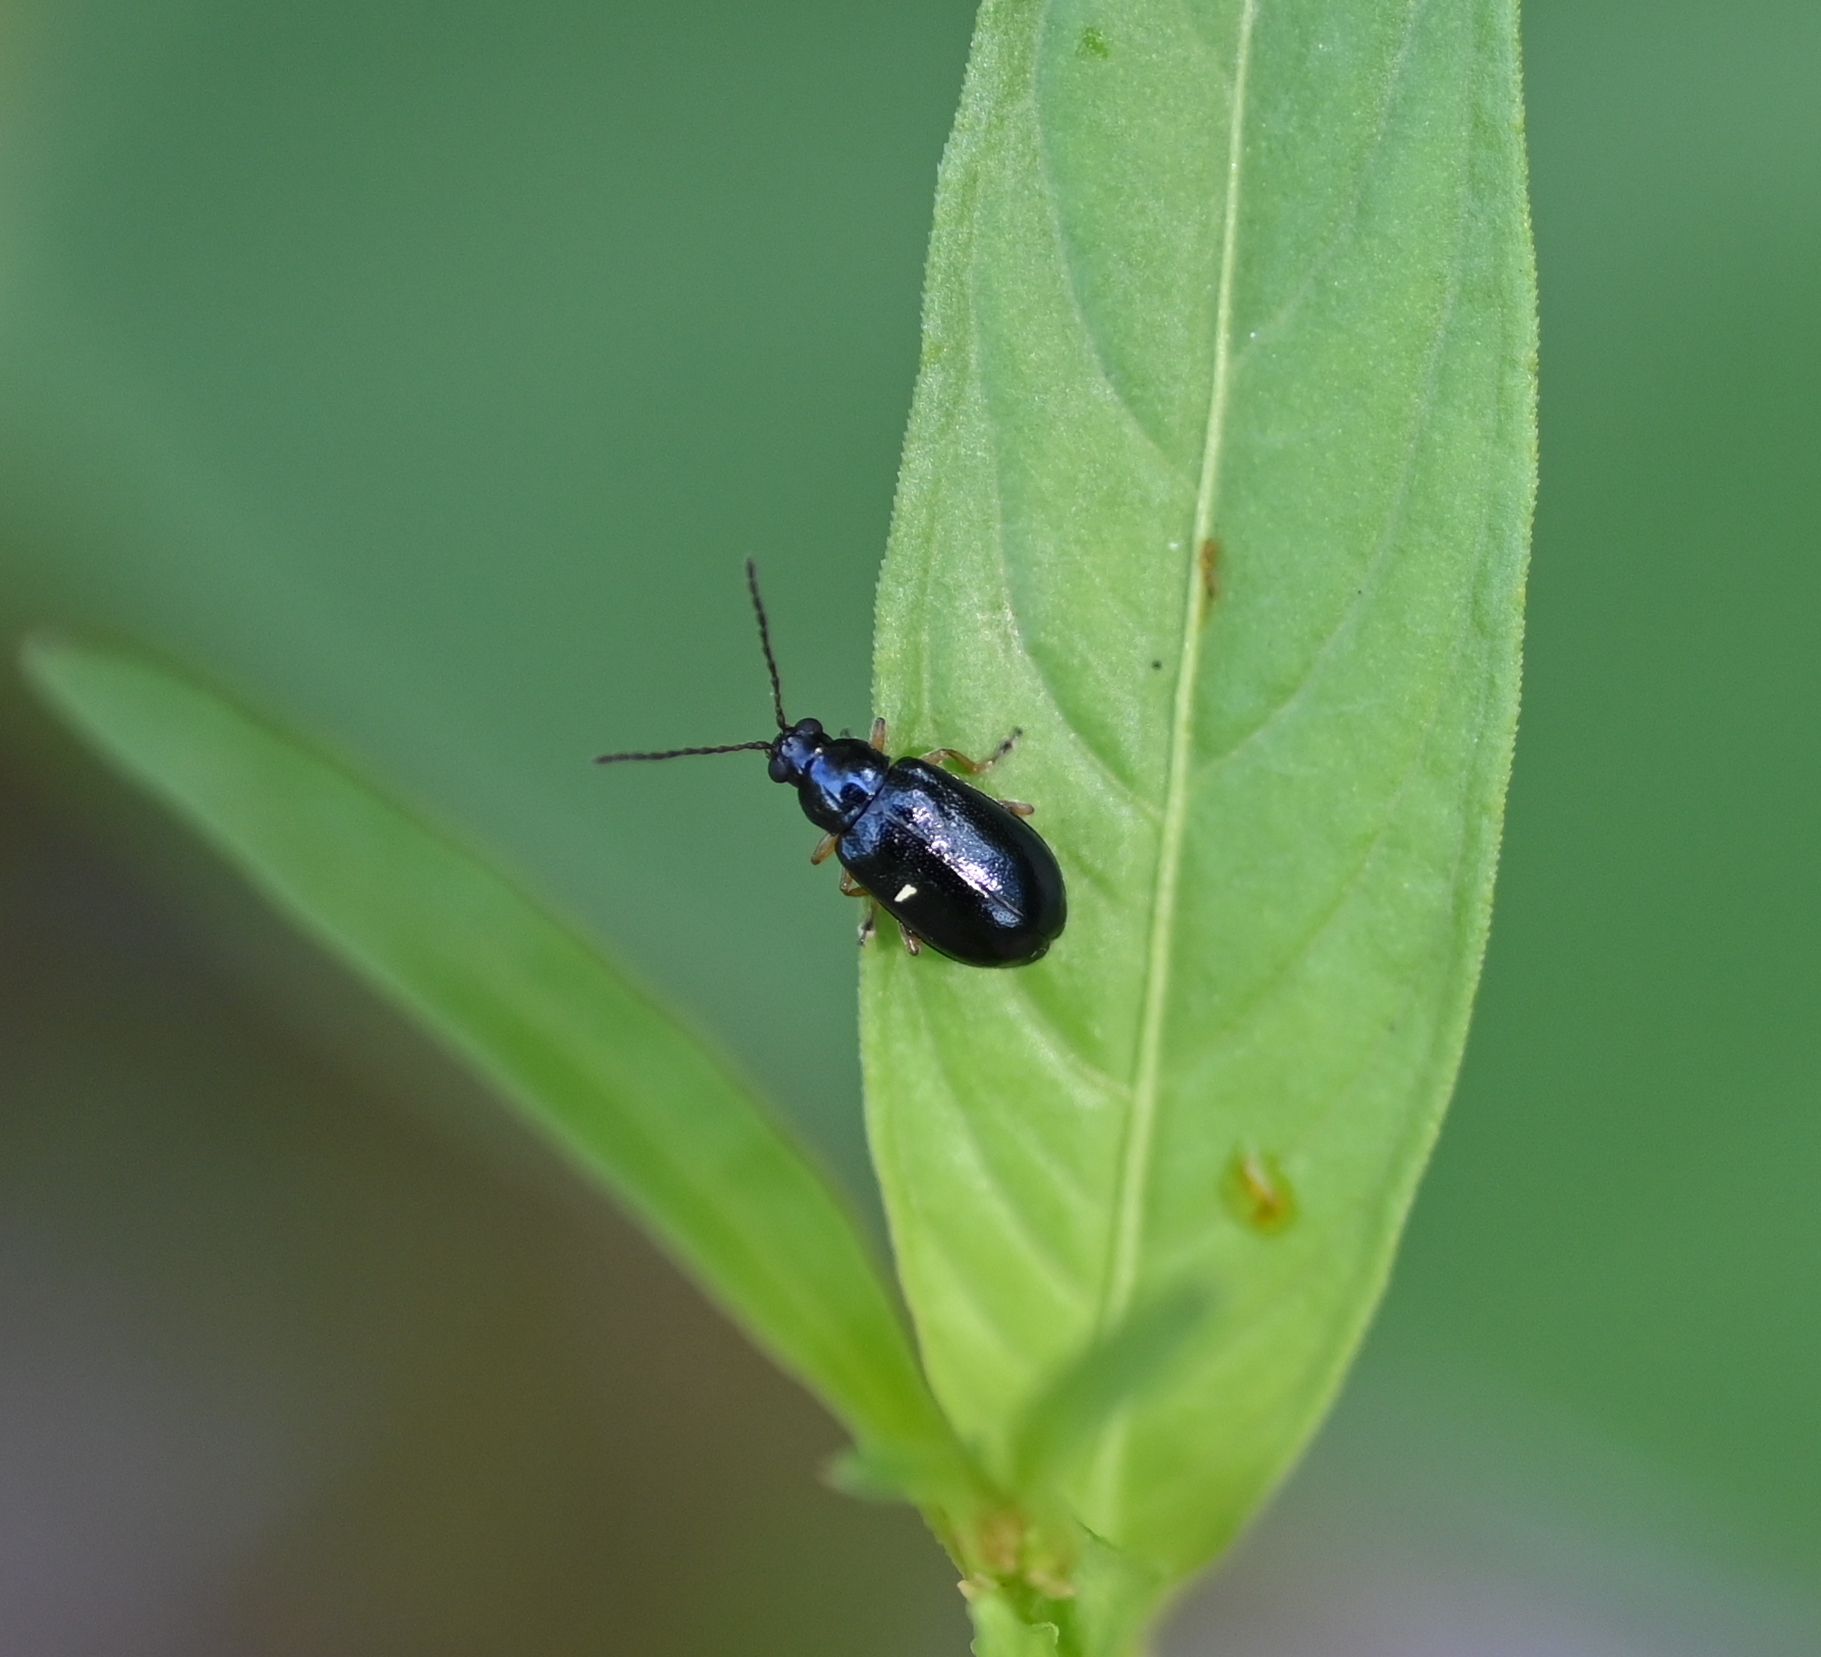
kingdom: Animalia
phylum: Arthropoda
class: Insecta
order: Coleoptera
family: Chrysomelidae
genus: Lysathia
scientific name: Lysathia ludoviciana
